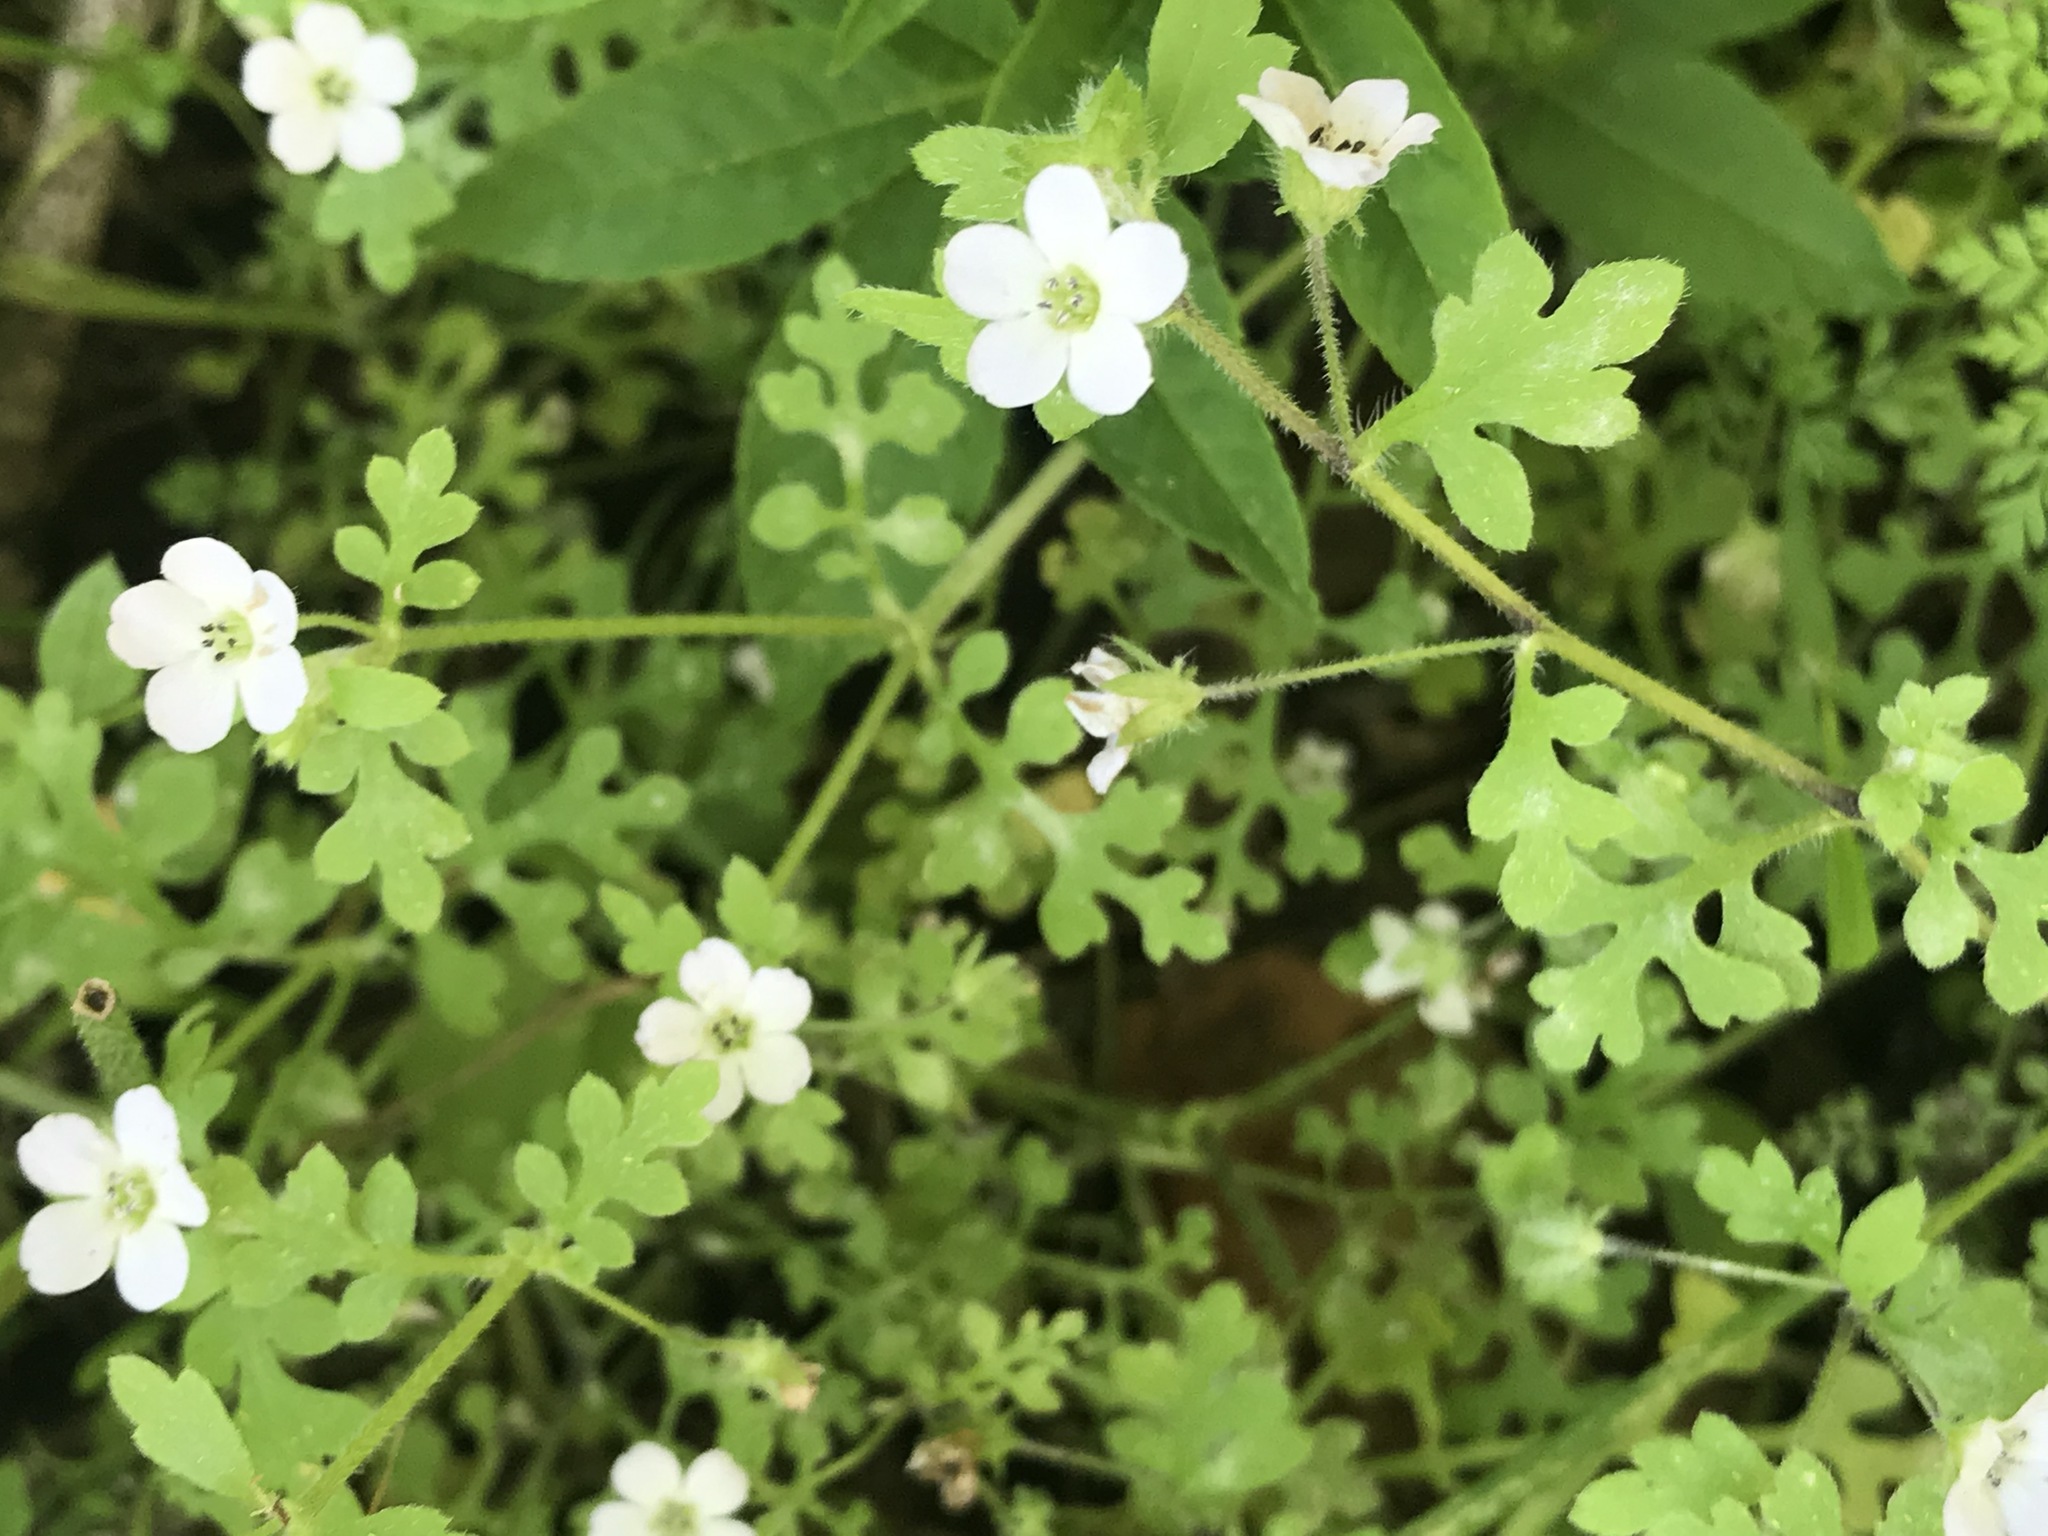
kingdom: Plantae
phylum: Tracheophyta
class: Magnoliopsida
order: Boraginales
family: Hydrophyllaceae
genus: Nemophila
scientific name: Nemophila heterophylla
